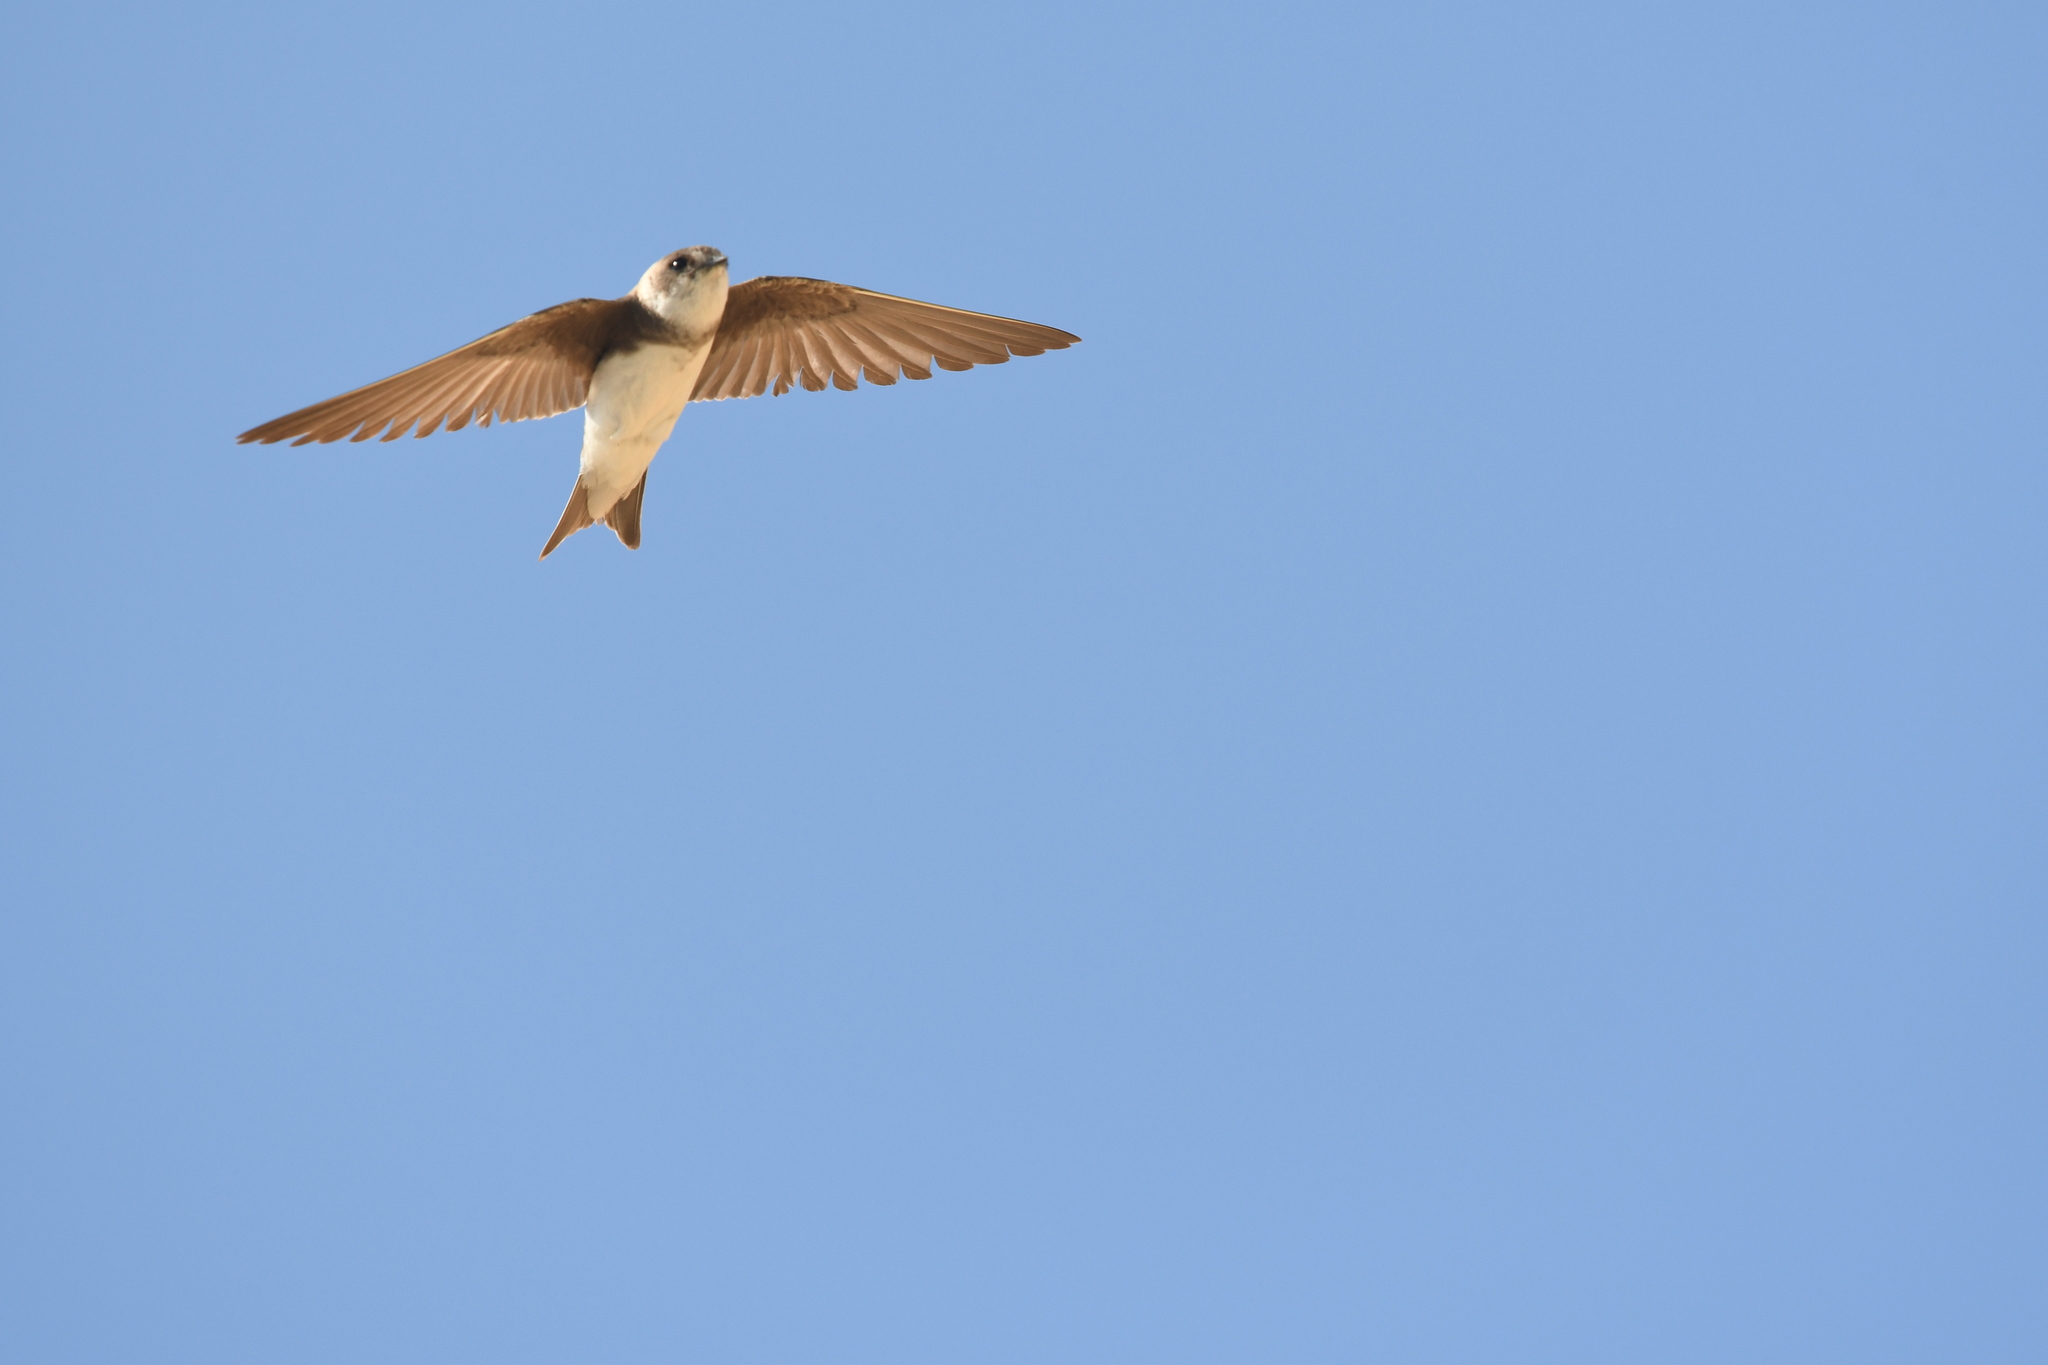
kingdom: Animalia
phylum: Chordata
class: Aves
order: Passeriformes
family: Hirundinidae
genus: Riparia
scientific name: Riparia riparia
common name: Sand martin
